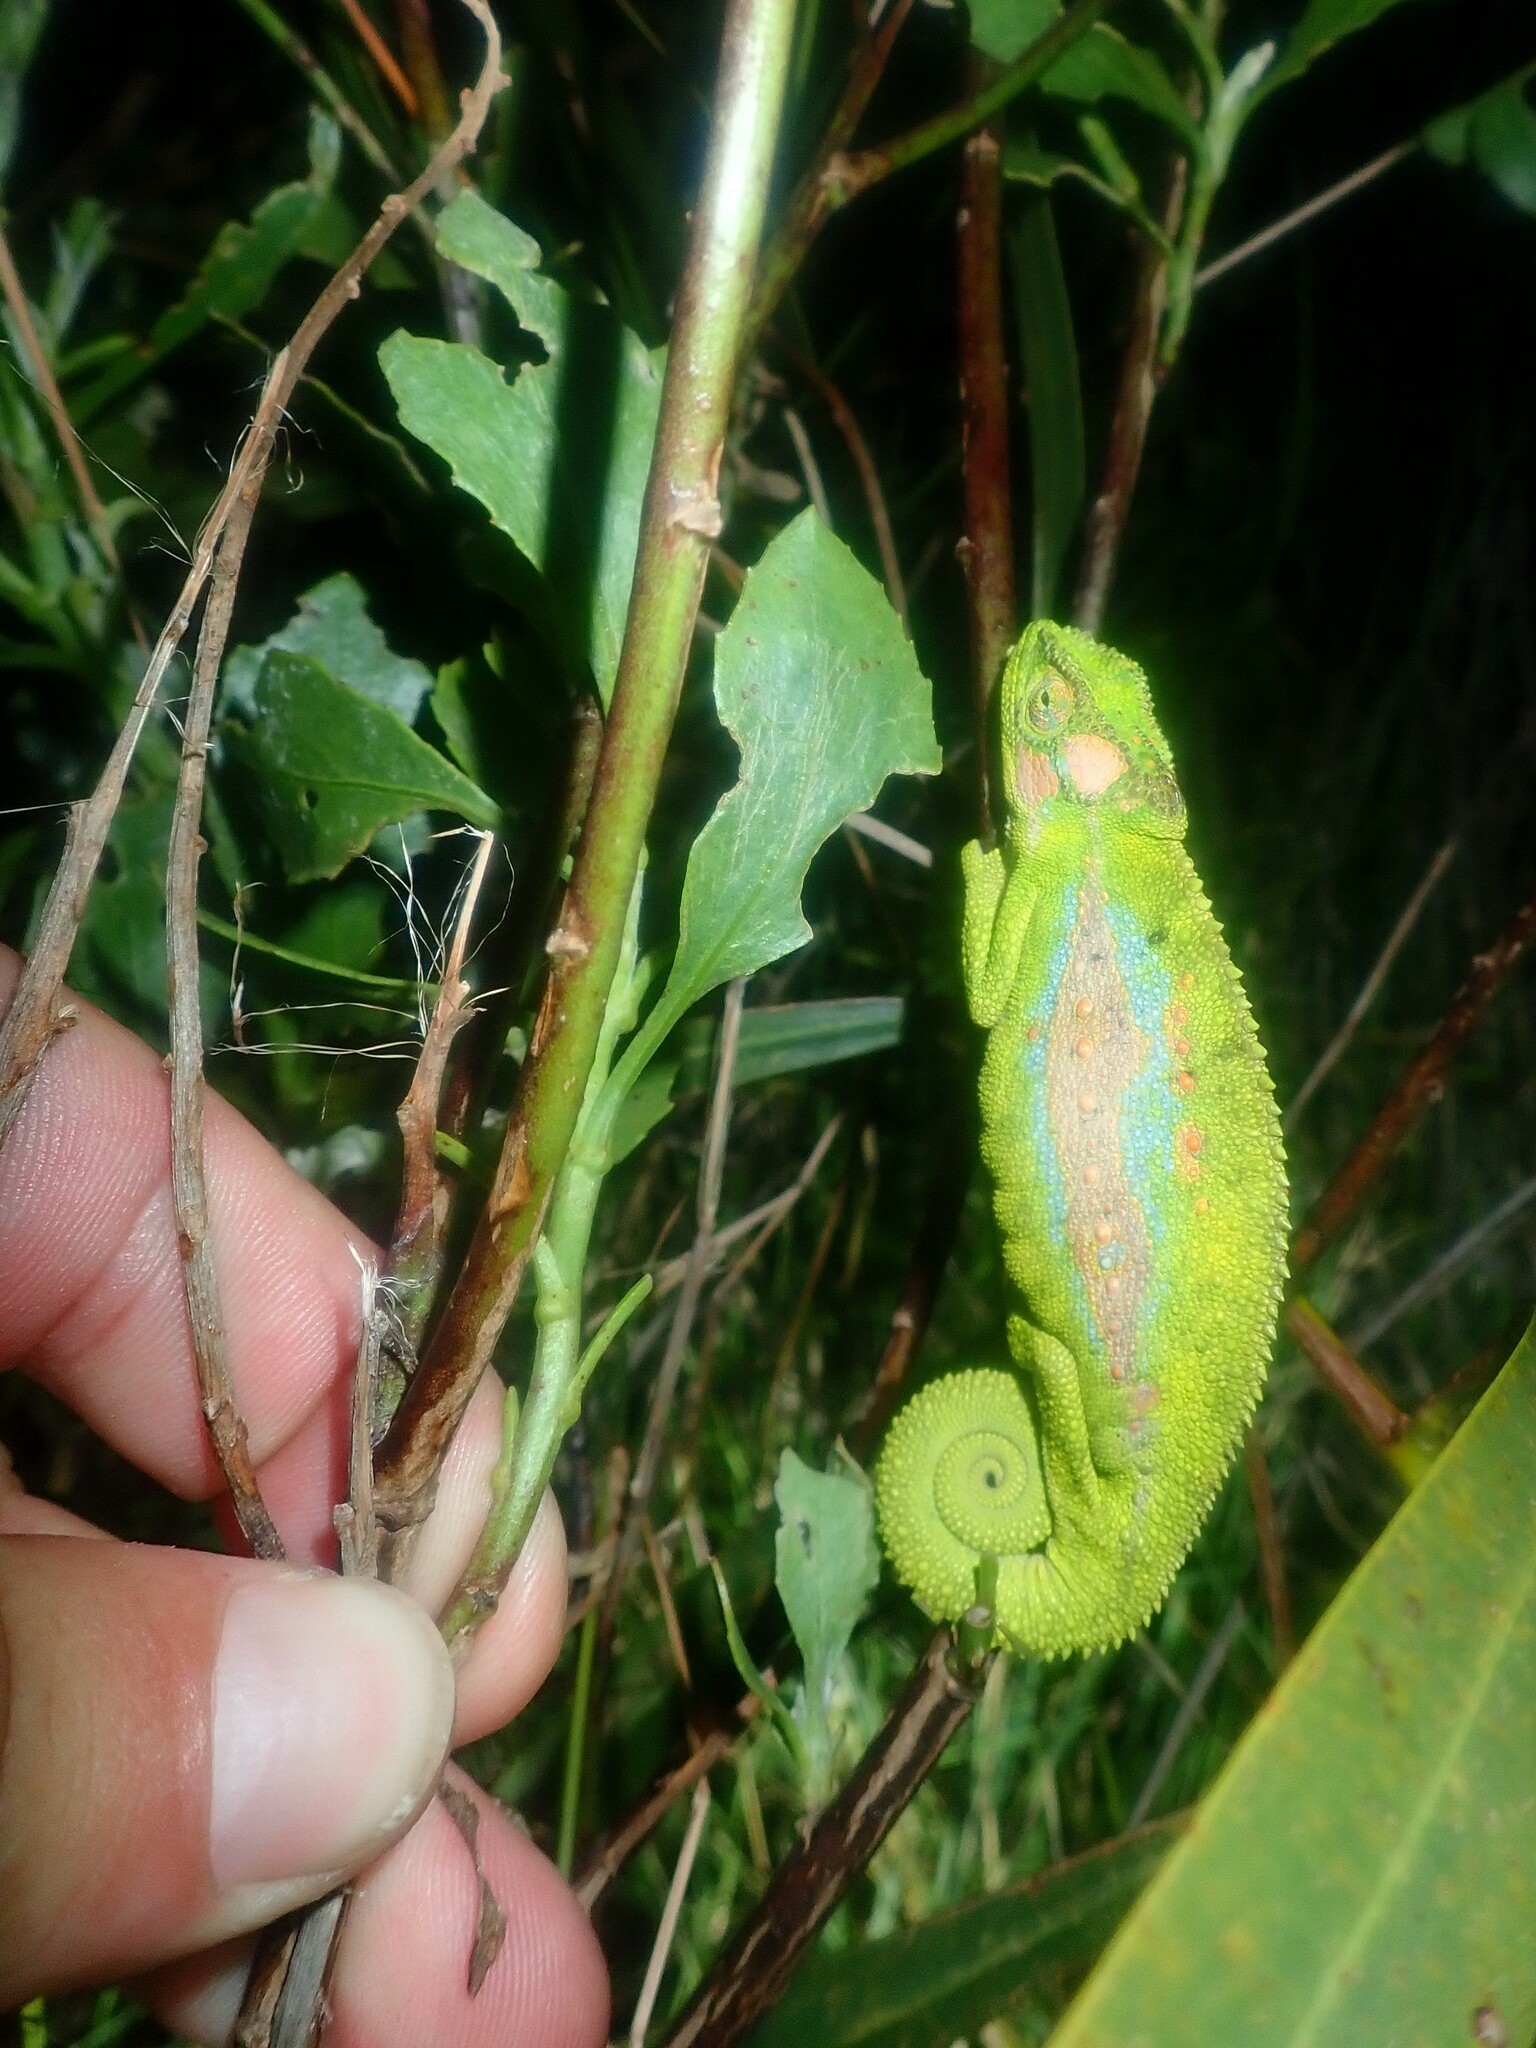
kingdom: Animalia
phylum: Chordata
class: Squamata
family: Chamaeleonidae
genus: Bradypodion
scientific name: Bradypodion pumilum
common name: Cape dwarf chameleon
